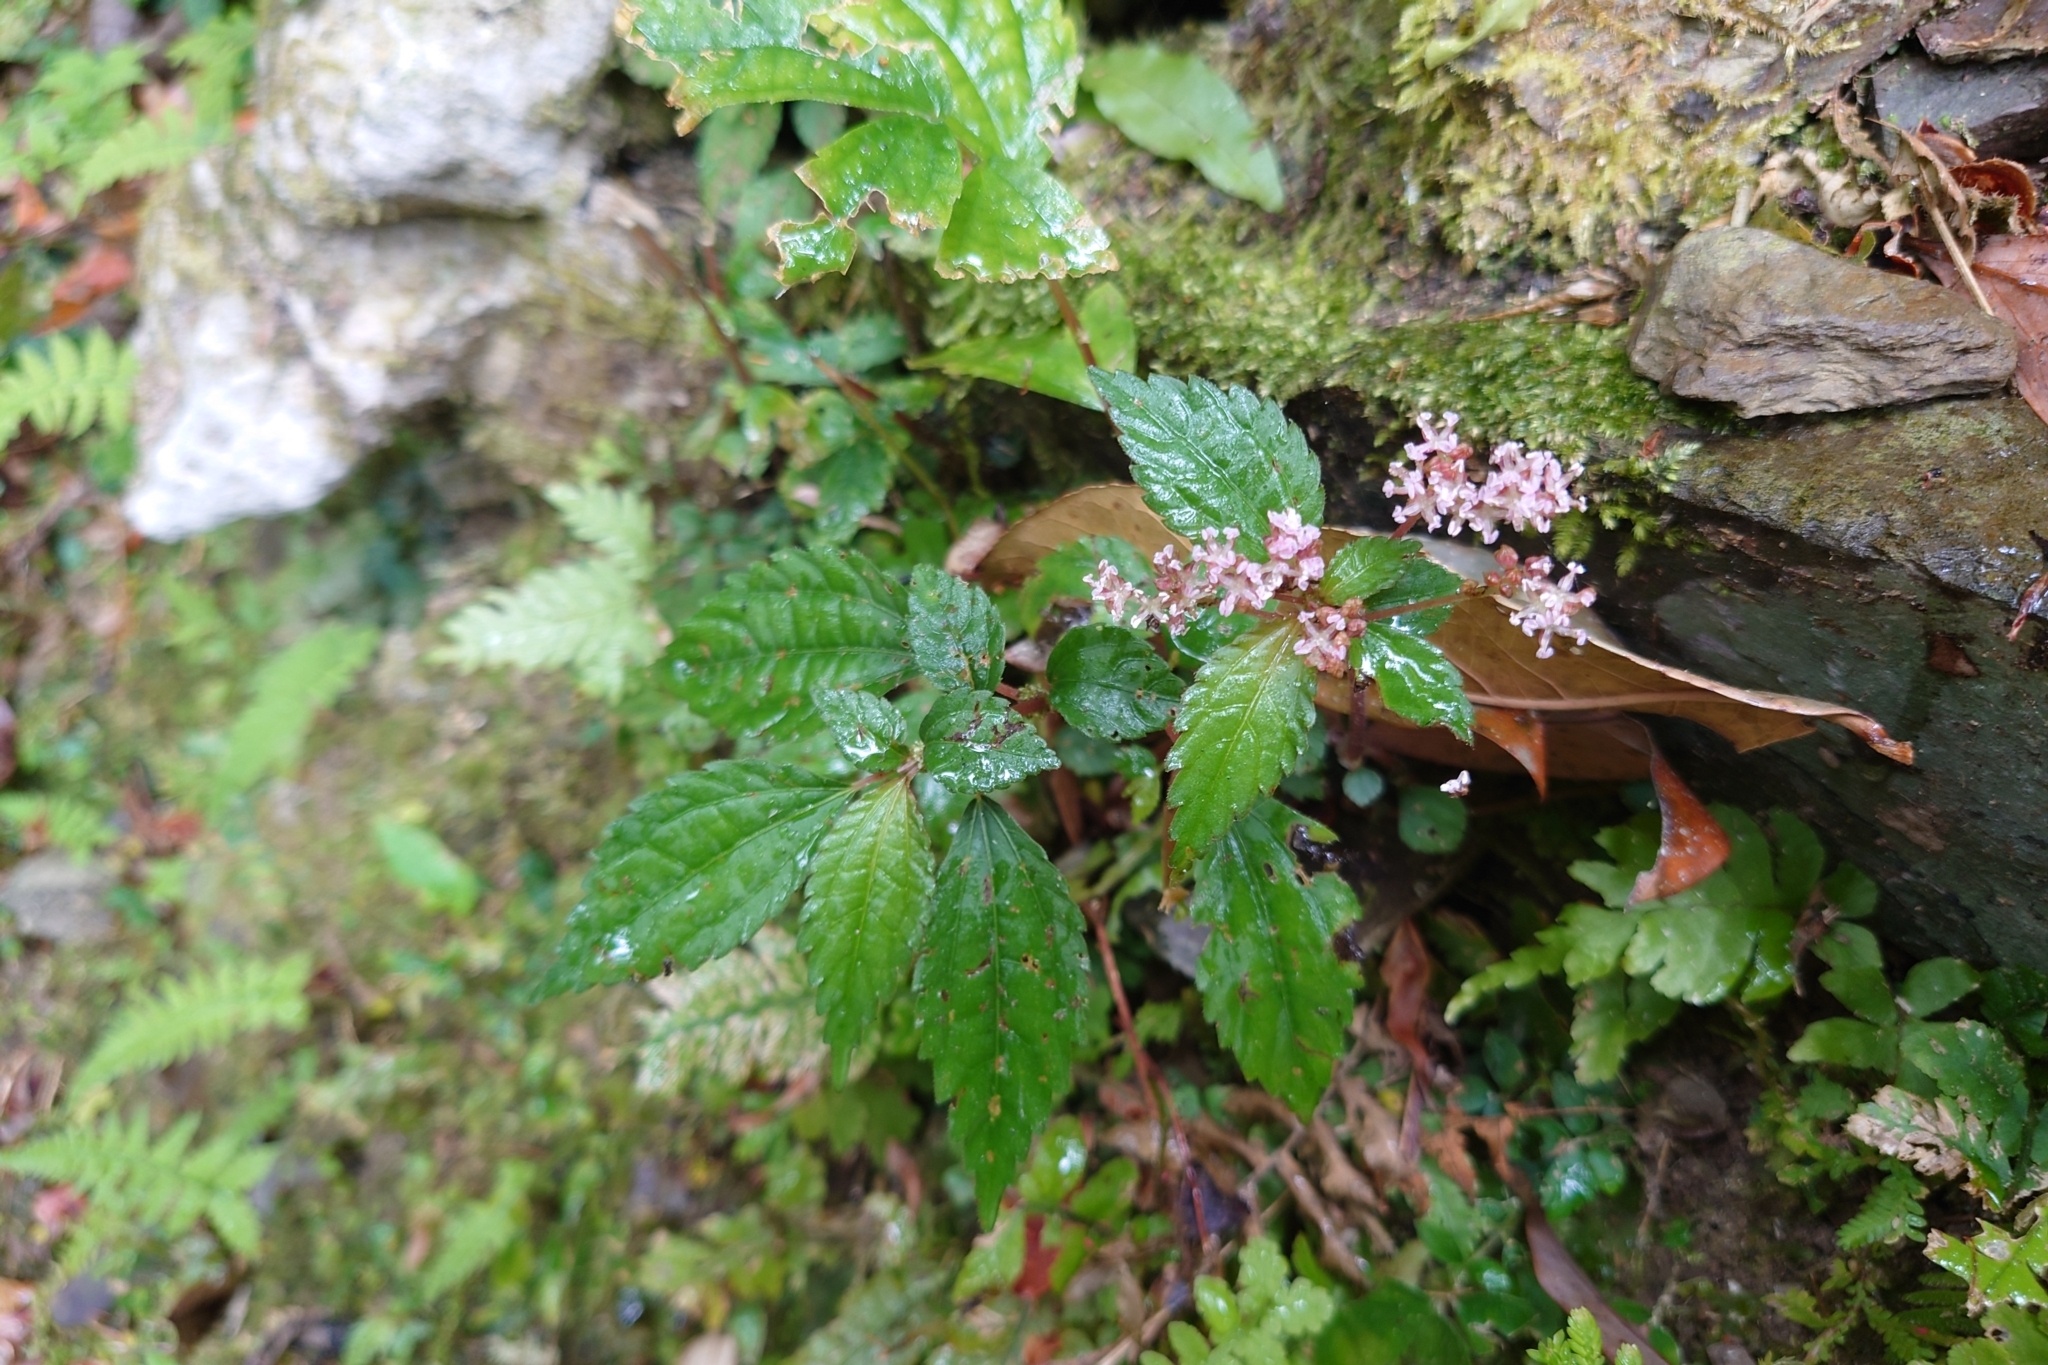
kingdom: Plantae
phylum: Tracheophyta
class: Magnoliopsida
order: Rosales
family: Urticaceae
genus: Pilea
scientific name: Pilea aquarum
